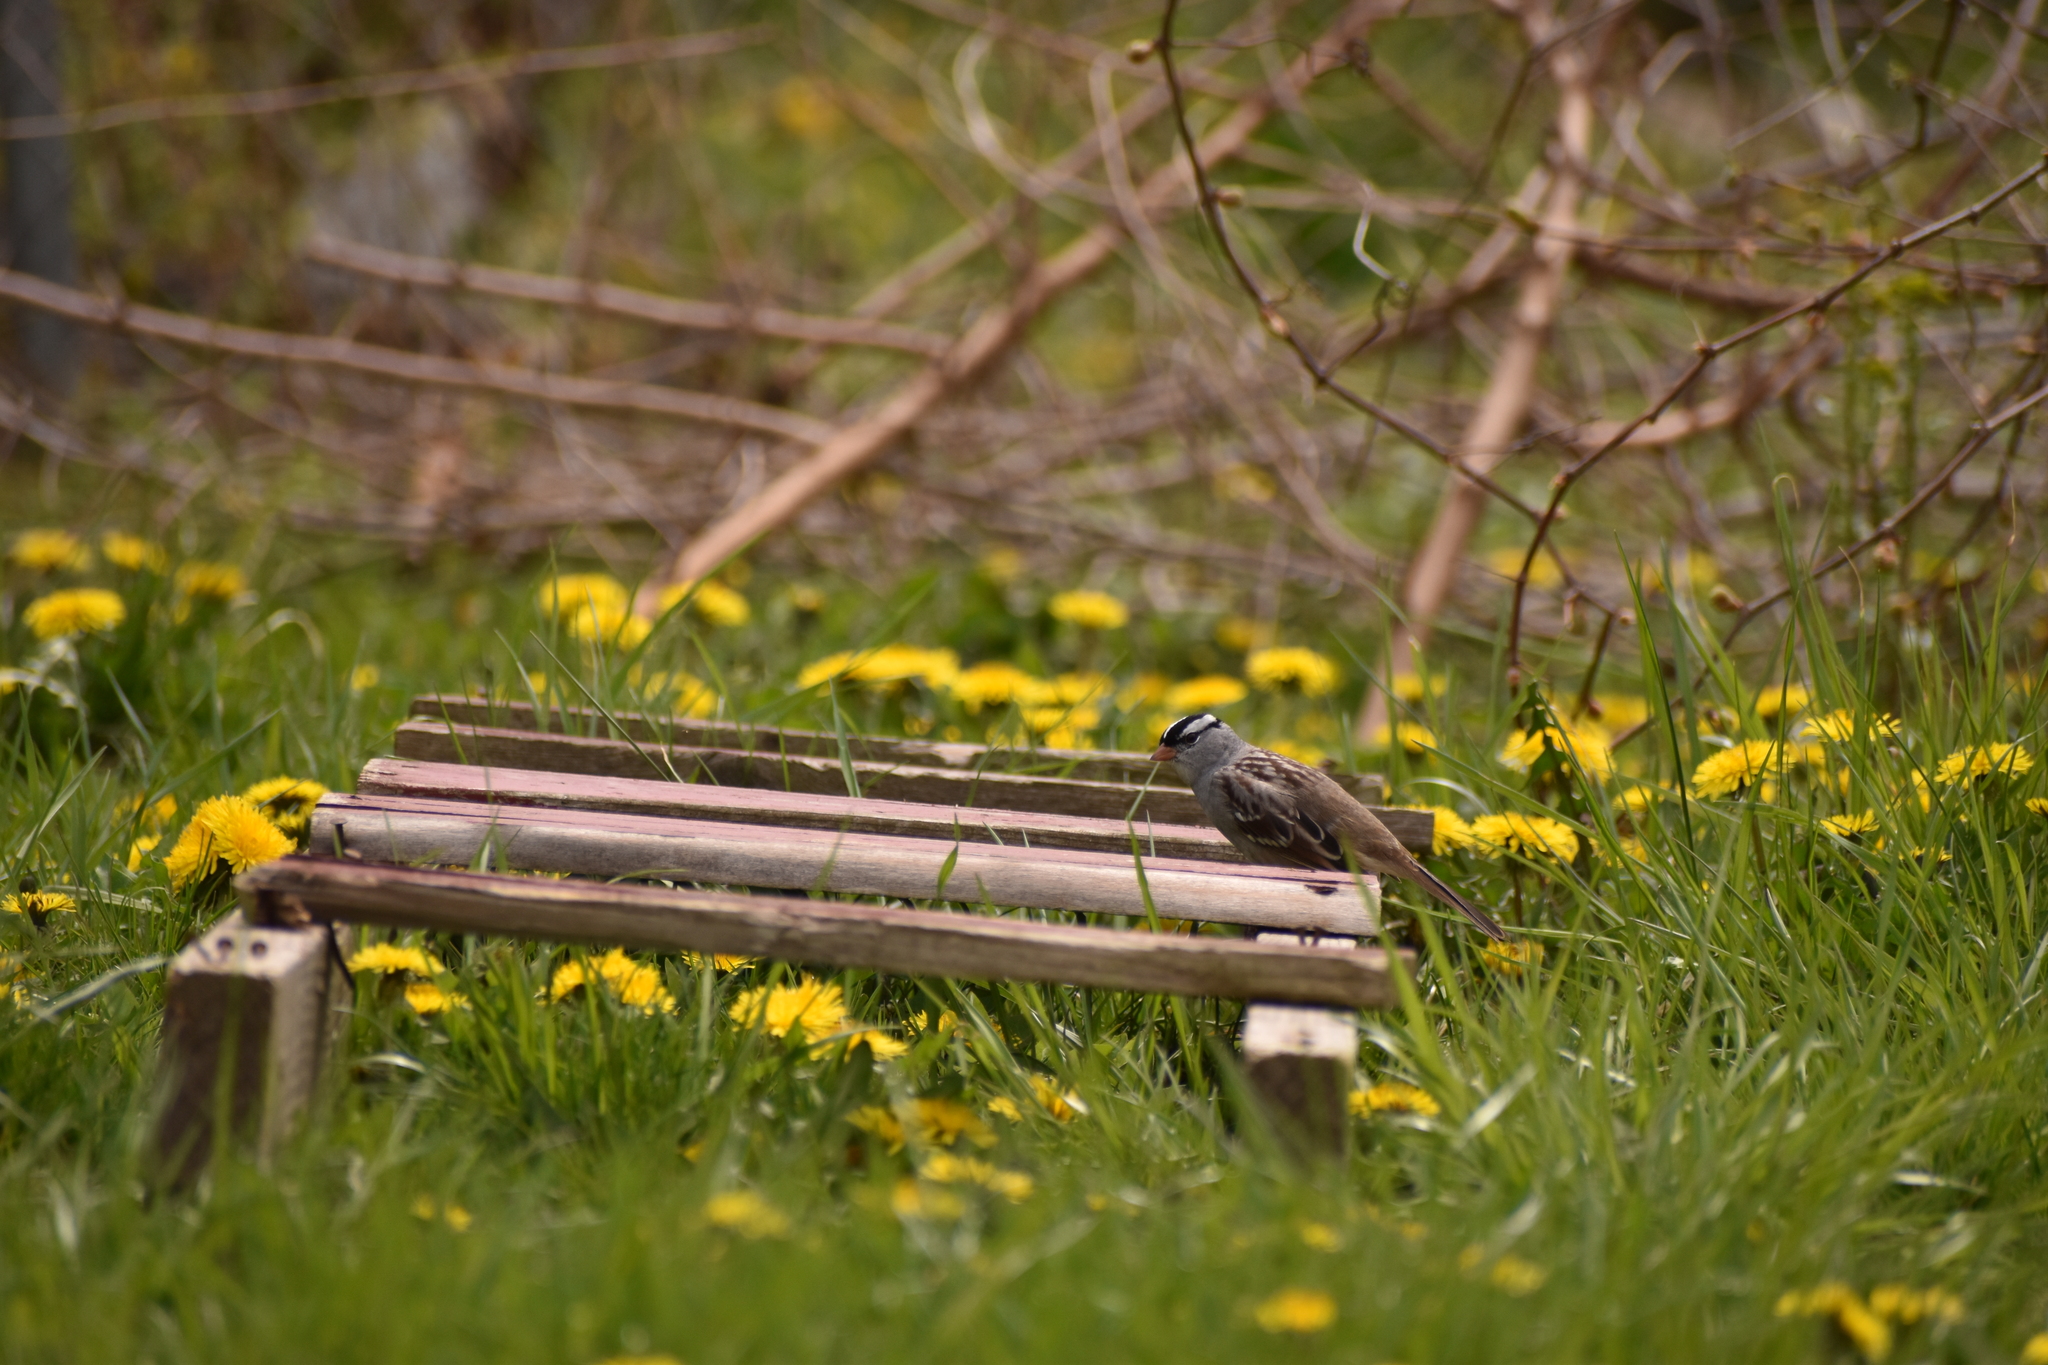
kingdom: Animalia
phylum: Chordata
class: Aves
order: Passeriformes
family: Passerellidae
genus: Zonotrichia
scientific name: Zonotrichia leucophrys
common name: White-crowned sparrow
